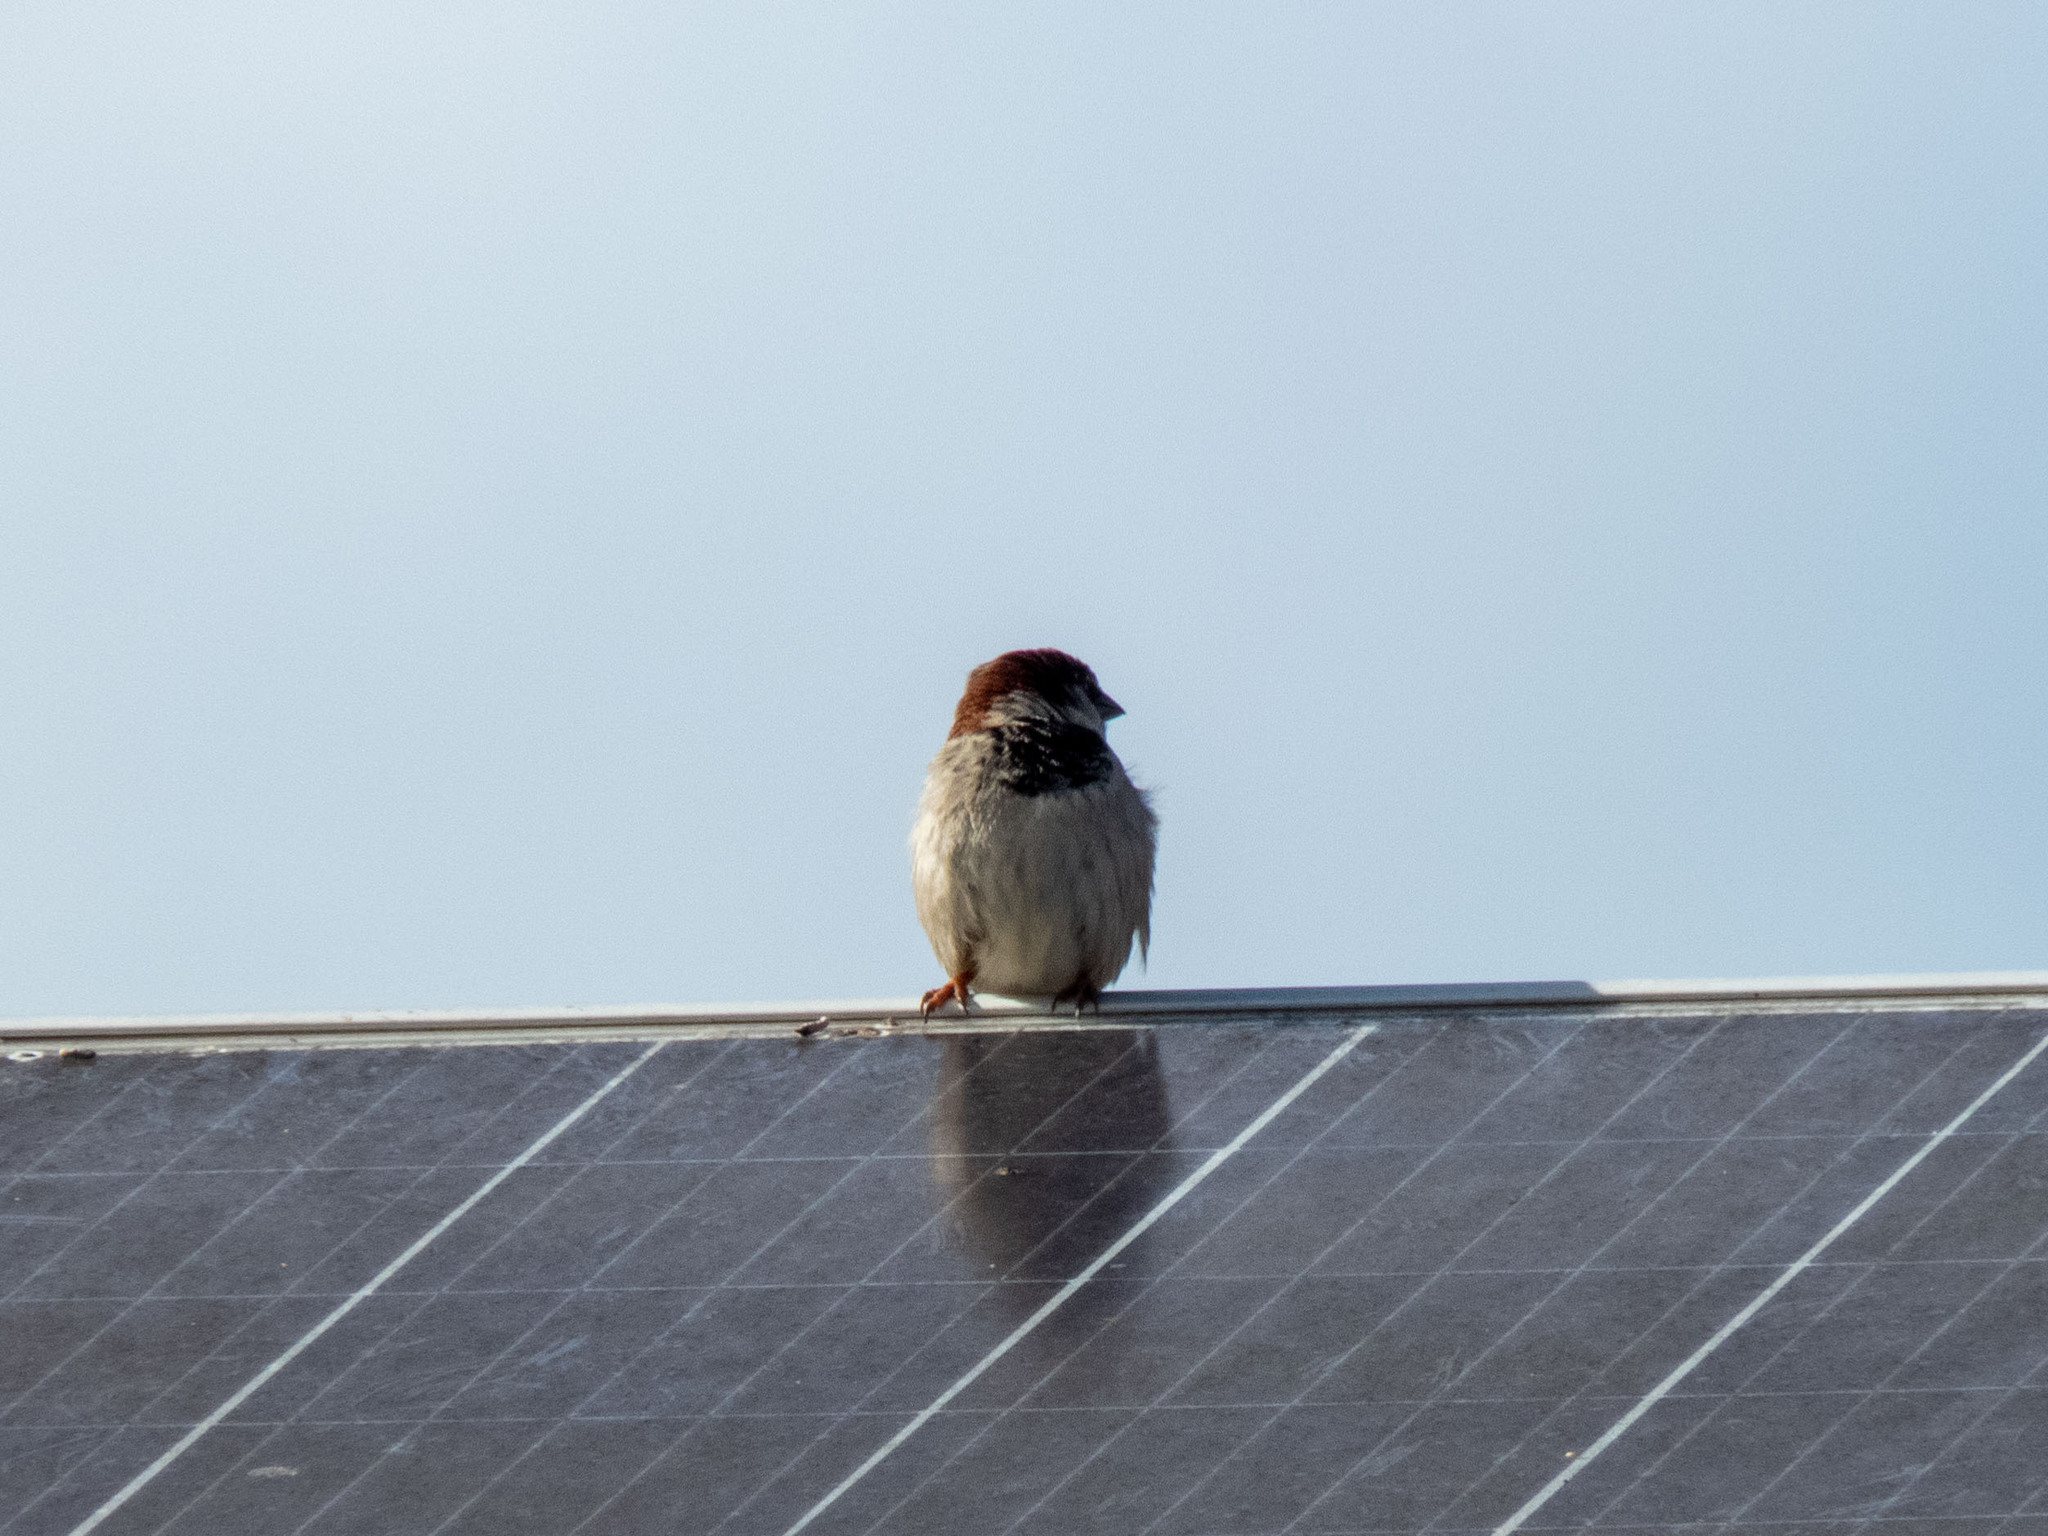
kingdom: Animalia
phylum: Chordata
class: Aves
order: Passeriformes
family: Passeridae
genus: Passer
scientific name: Passer domesticus
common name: House sparrow
